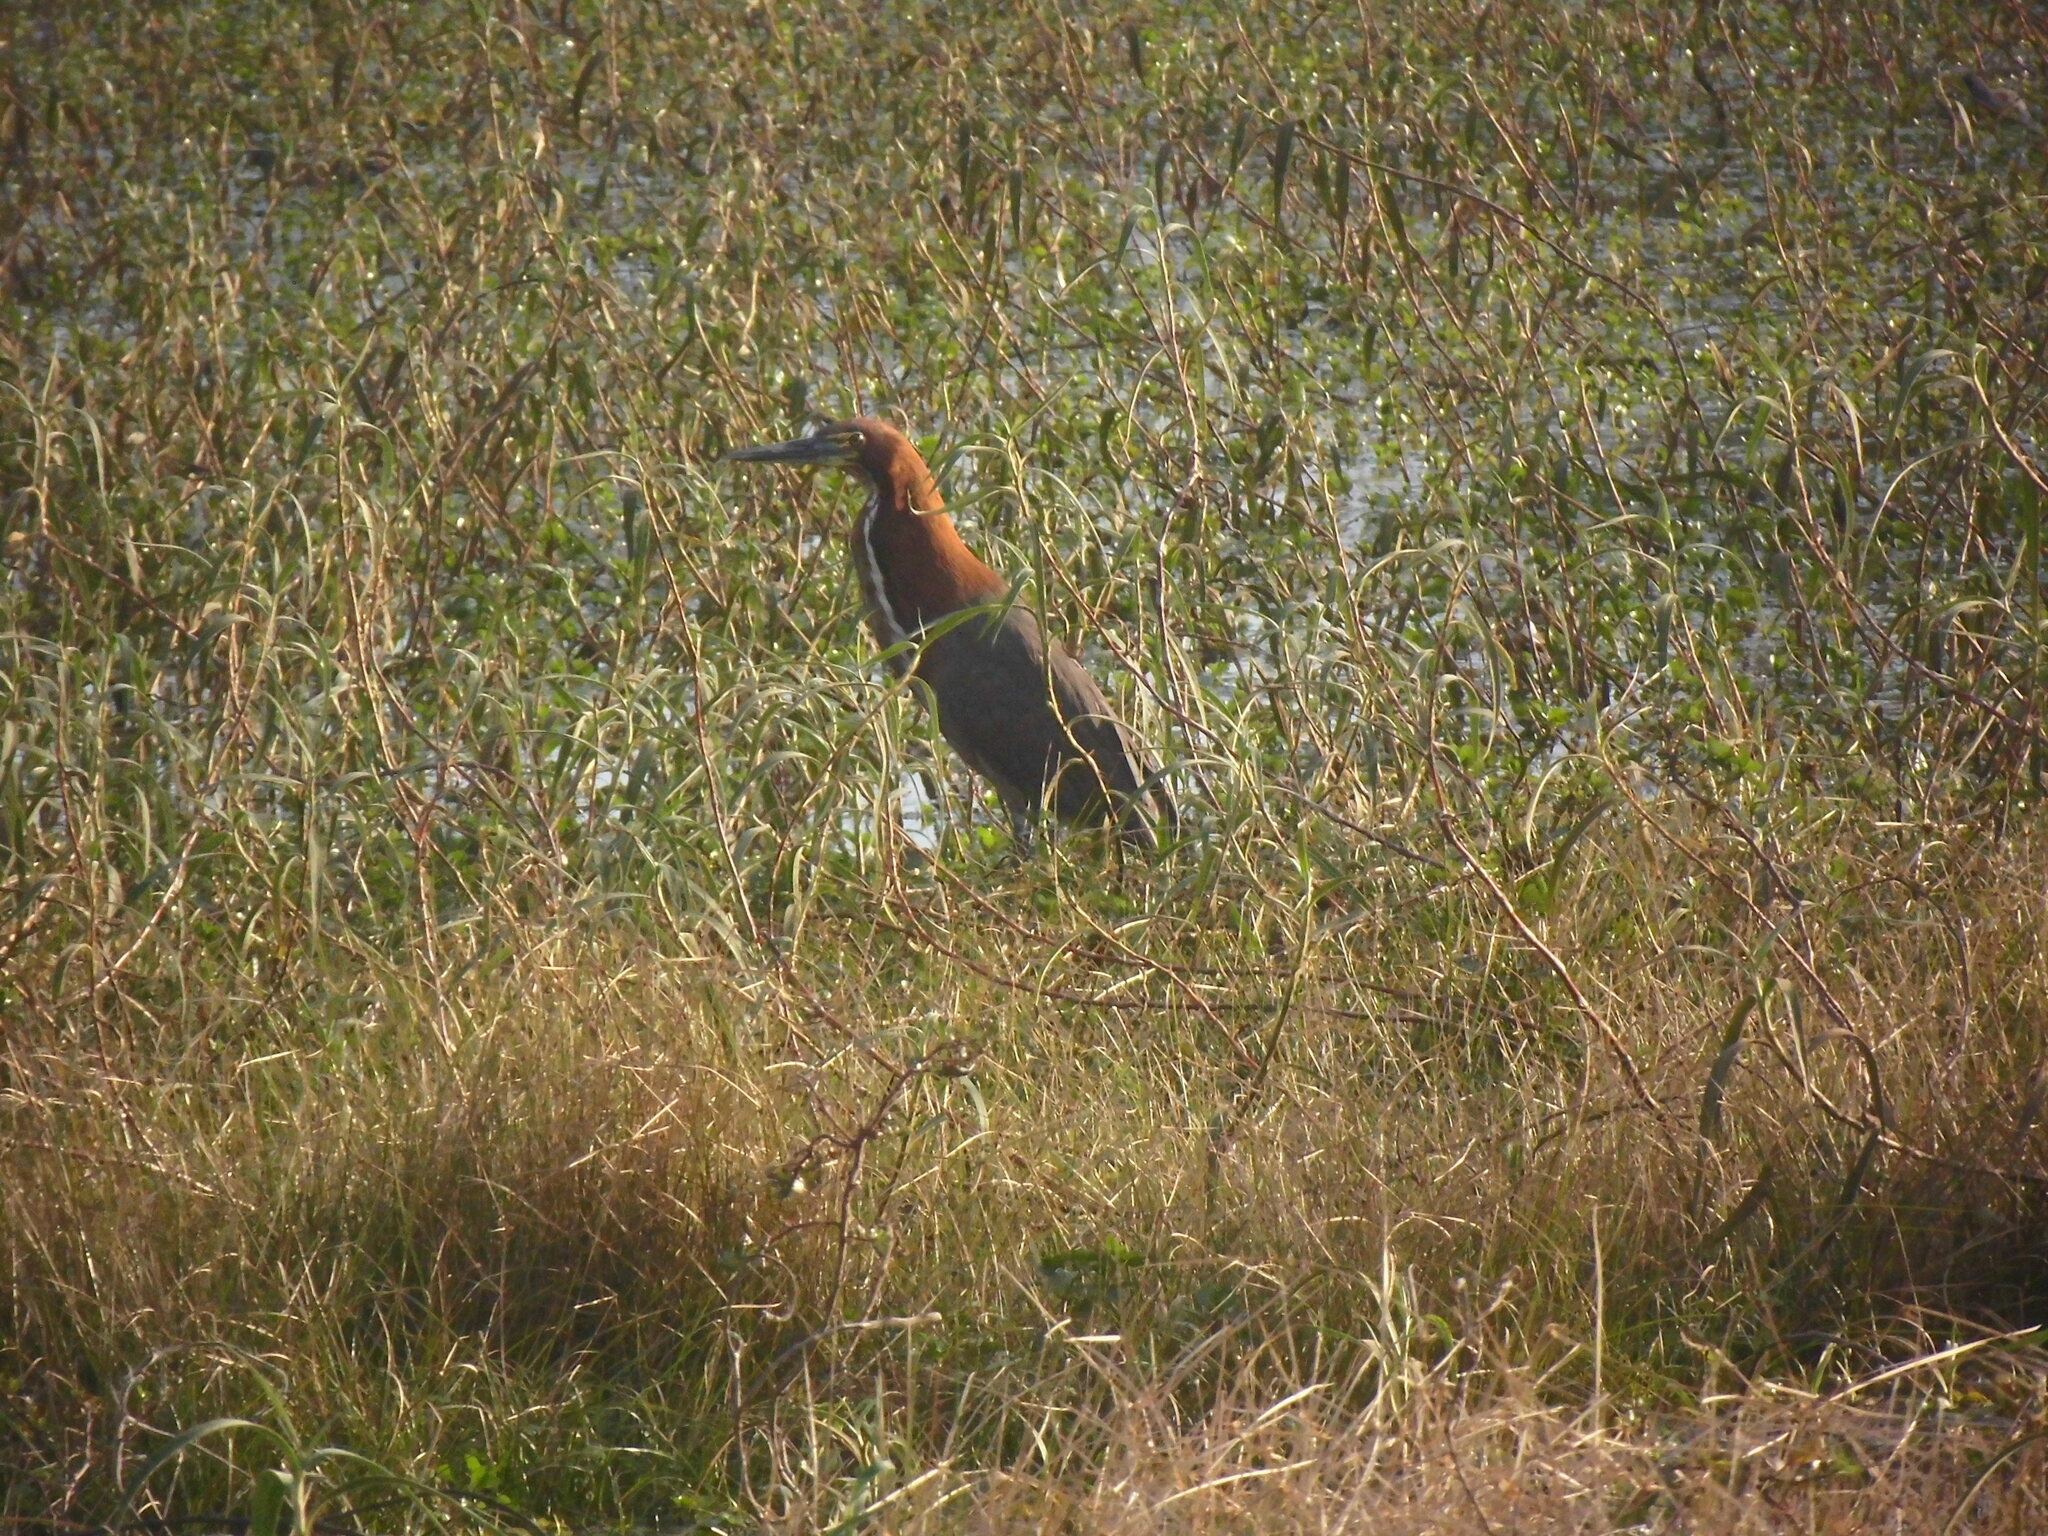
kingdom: Animalia
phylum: Chordata
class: Aves
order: Pelecaniformes
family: Ardeidae
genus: Tigrisoma
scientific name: Tigrisoma lineatum
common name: Rufescent tiger-heron
